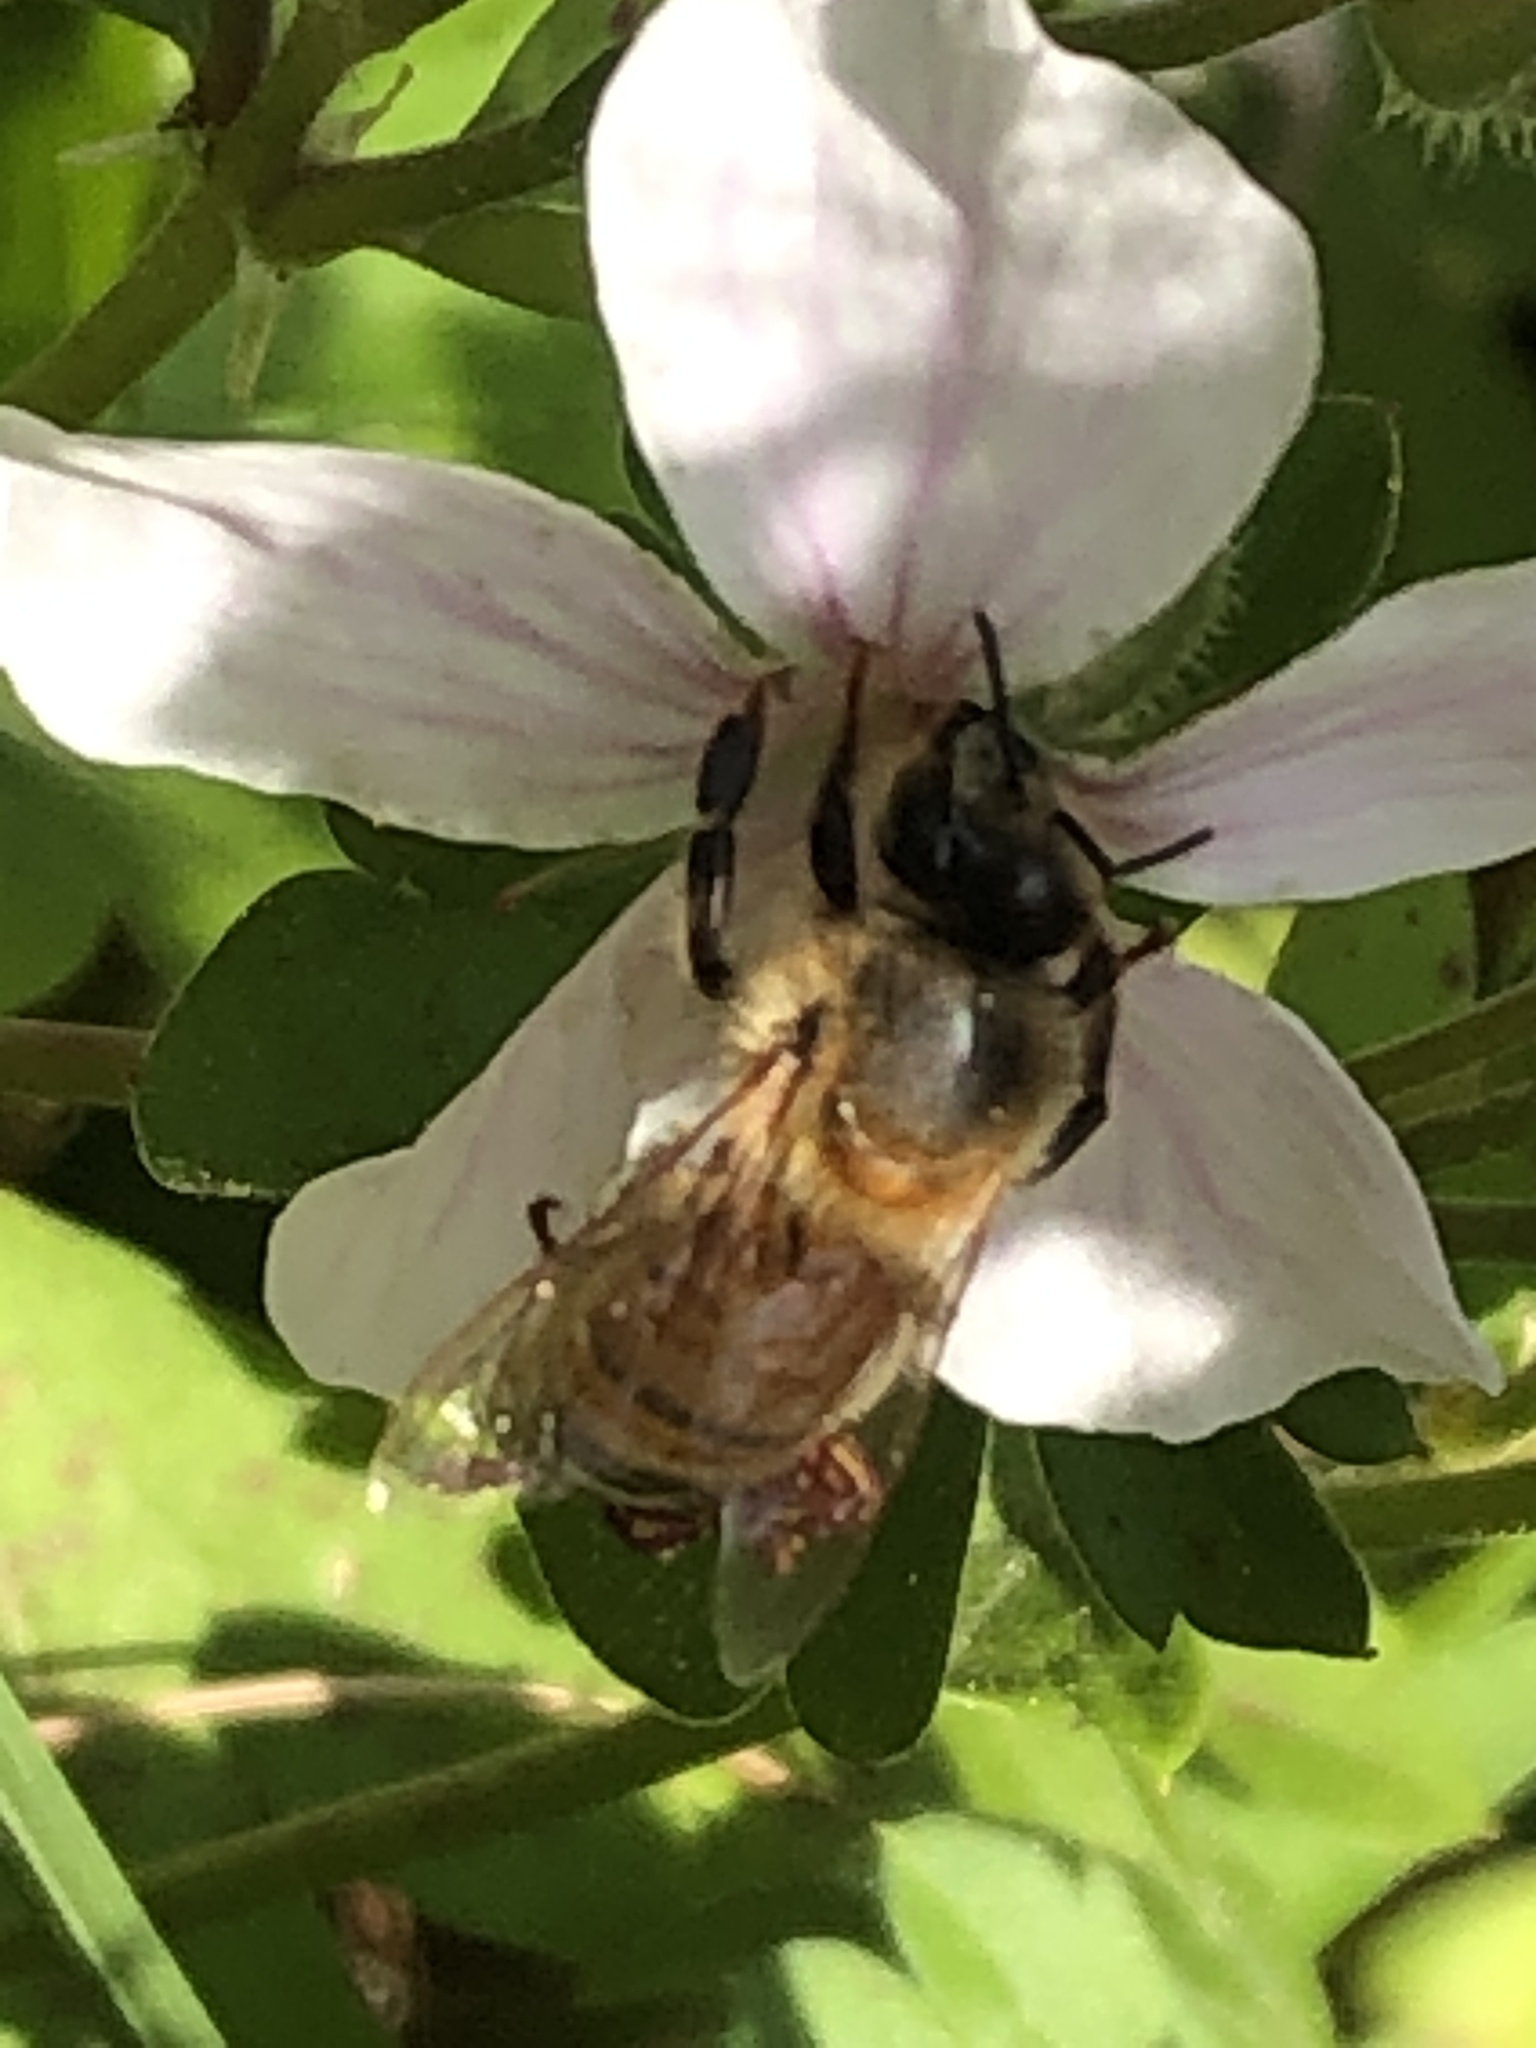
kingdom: Animalia
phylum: Arthropoda
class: Insecta
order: Hymenoptera
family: Apidae
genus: Apis
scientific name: Apis mellifera
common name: Honey bee
